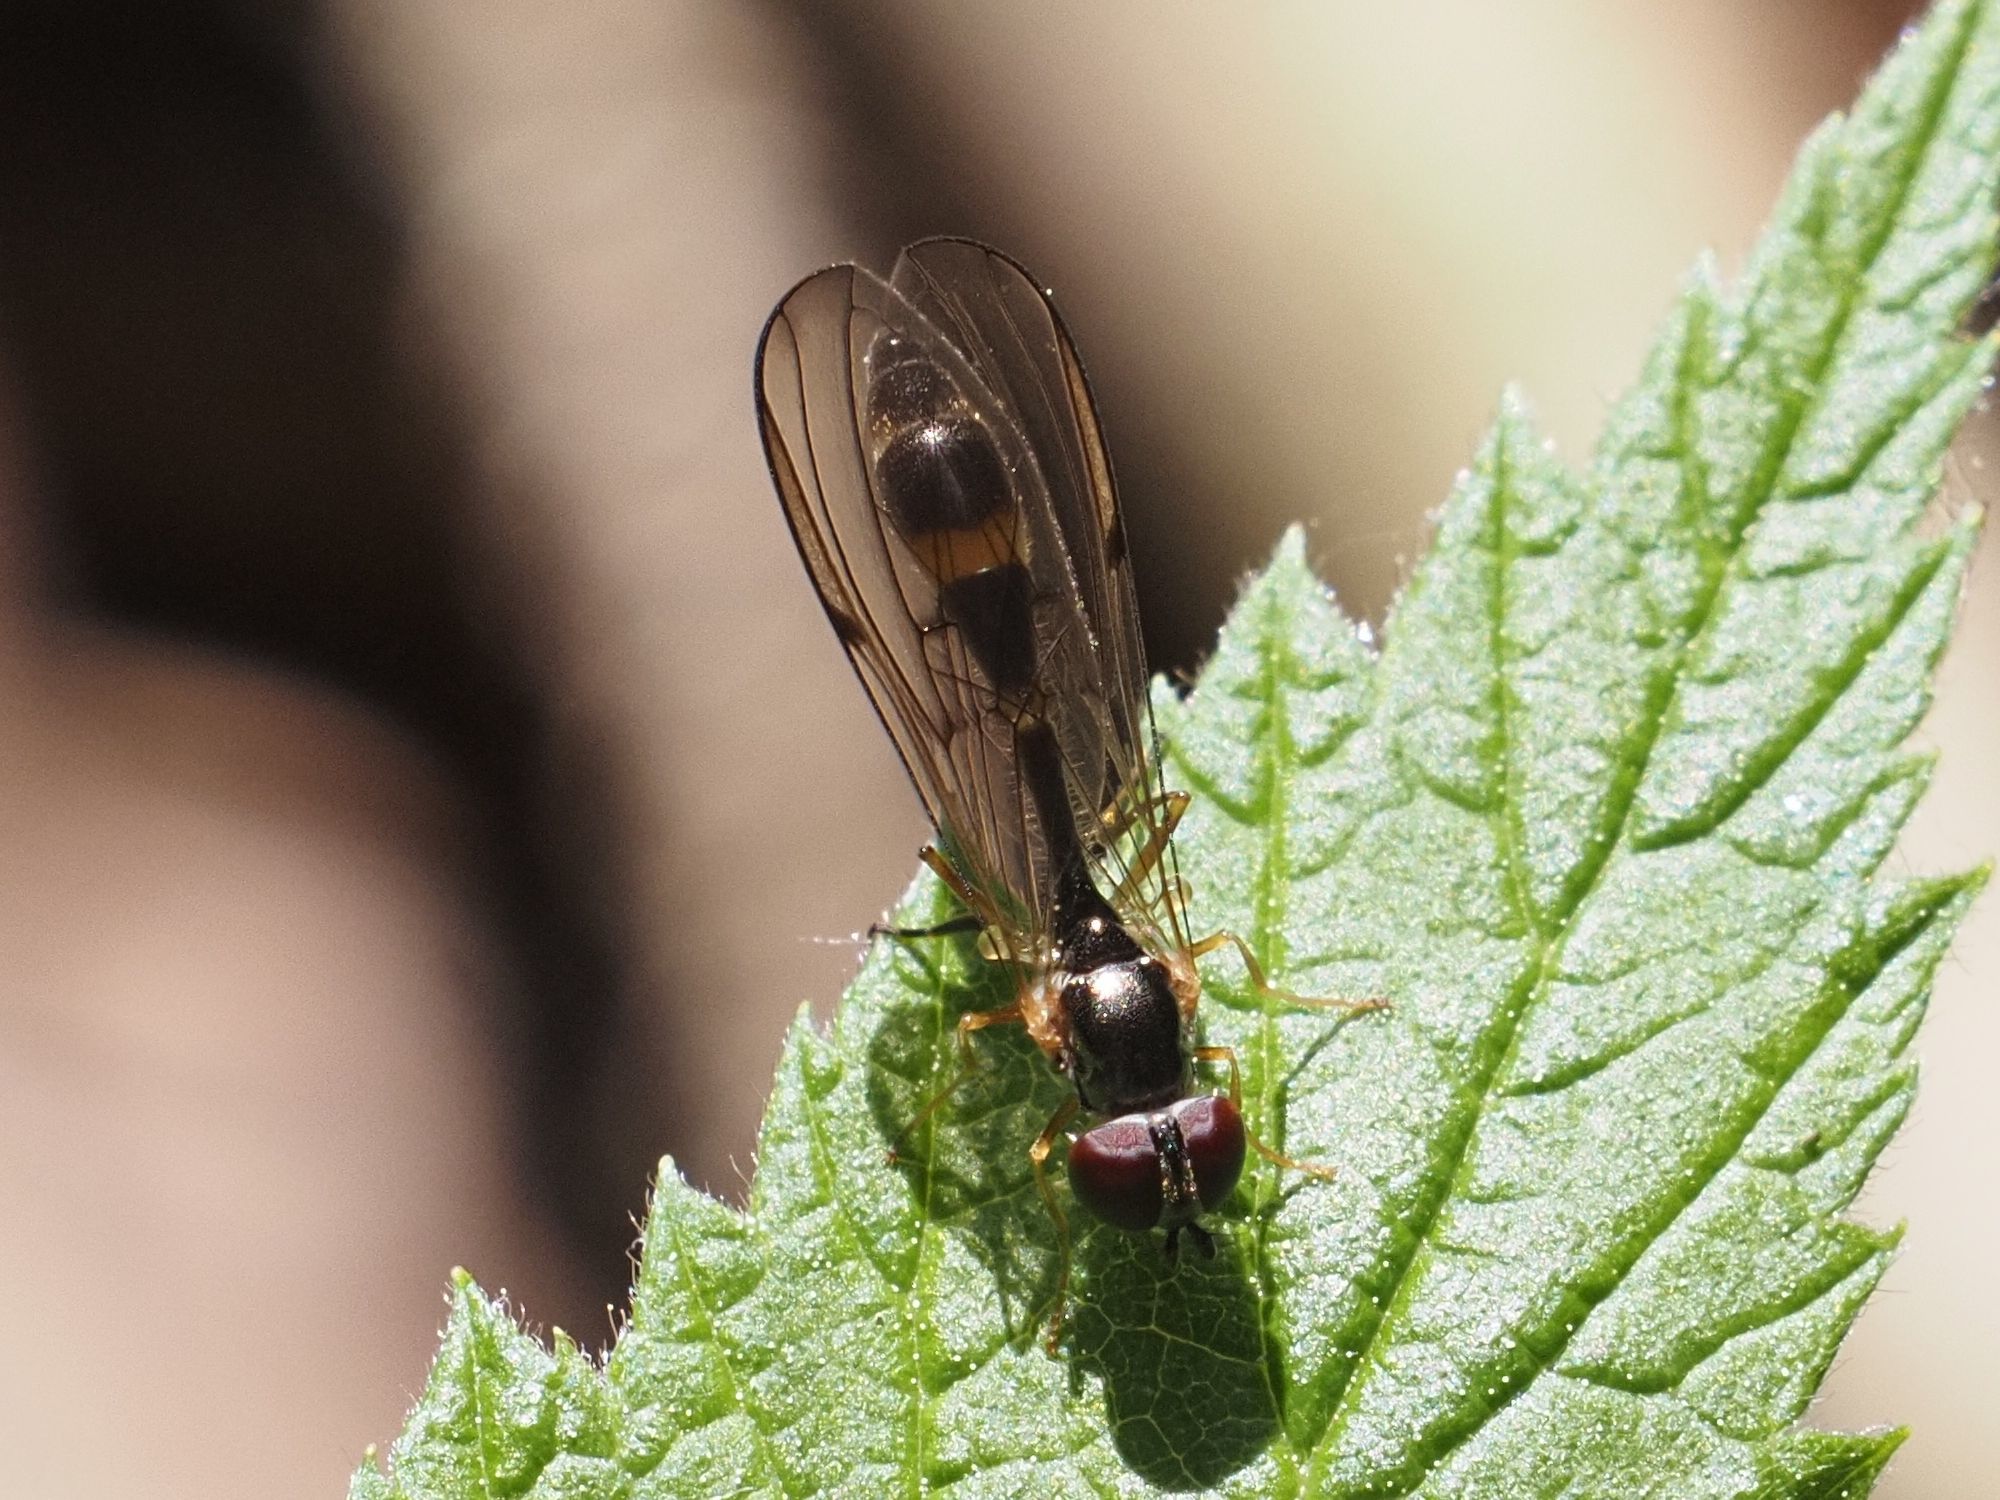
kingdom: Animalia
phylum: Arthropoda
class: Insecta
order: Diptera
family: Syrphidae
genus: Baccha
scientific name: Baccha elongata
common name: Common dainty
